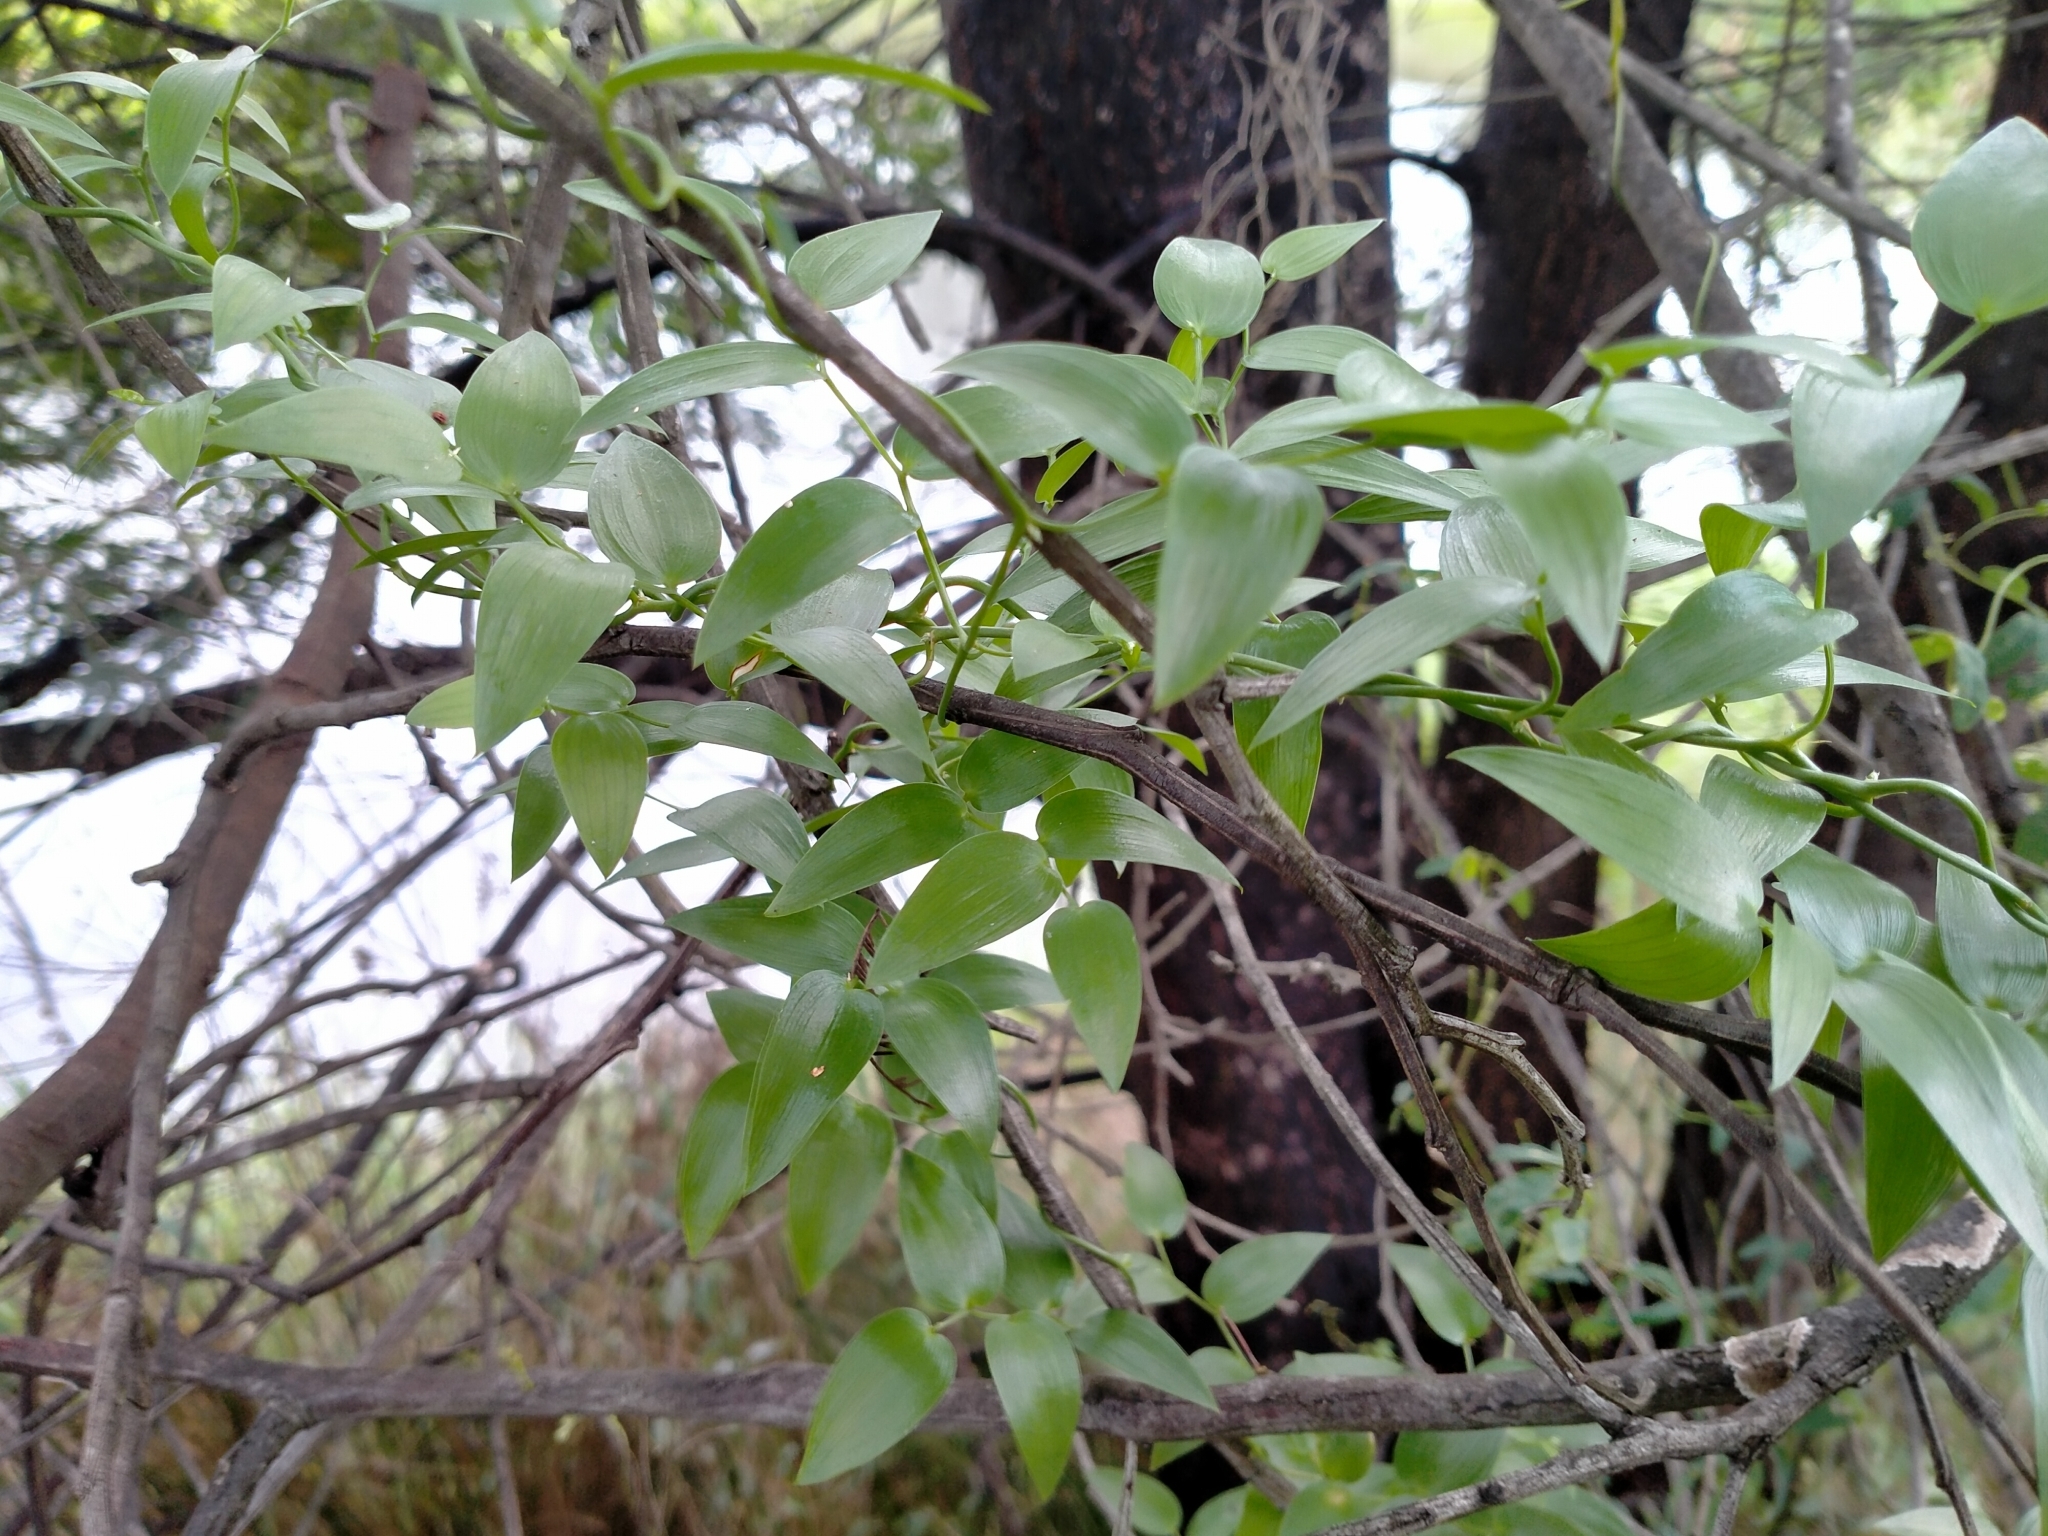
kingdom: Plantae
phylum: Tracheophyta
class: Liliopsida
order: Asparagales
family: Asparagaceae
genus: Asparagus
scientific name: Asparagus asparagoides
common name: African asparagus fern
